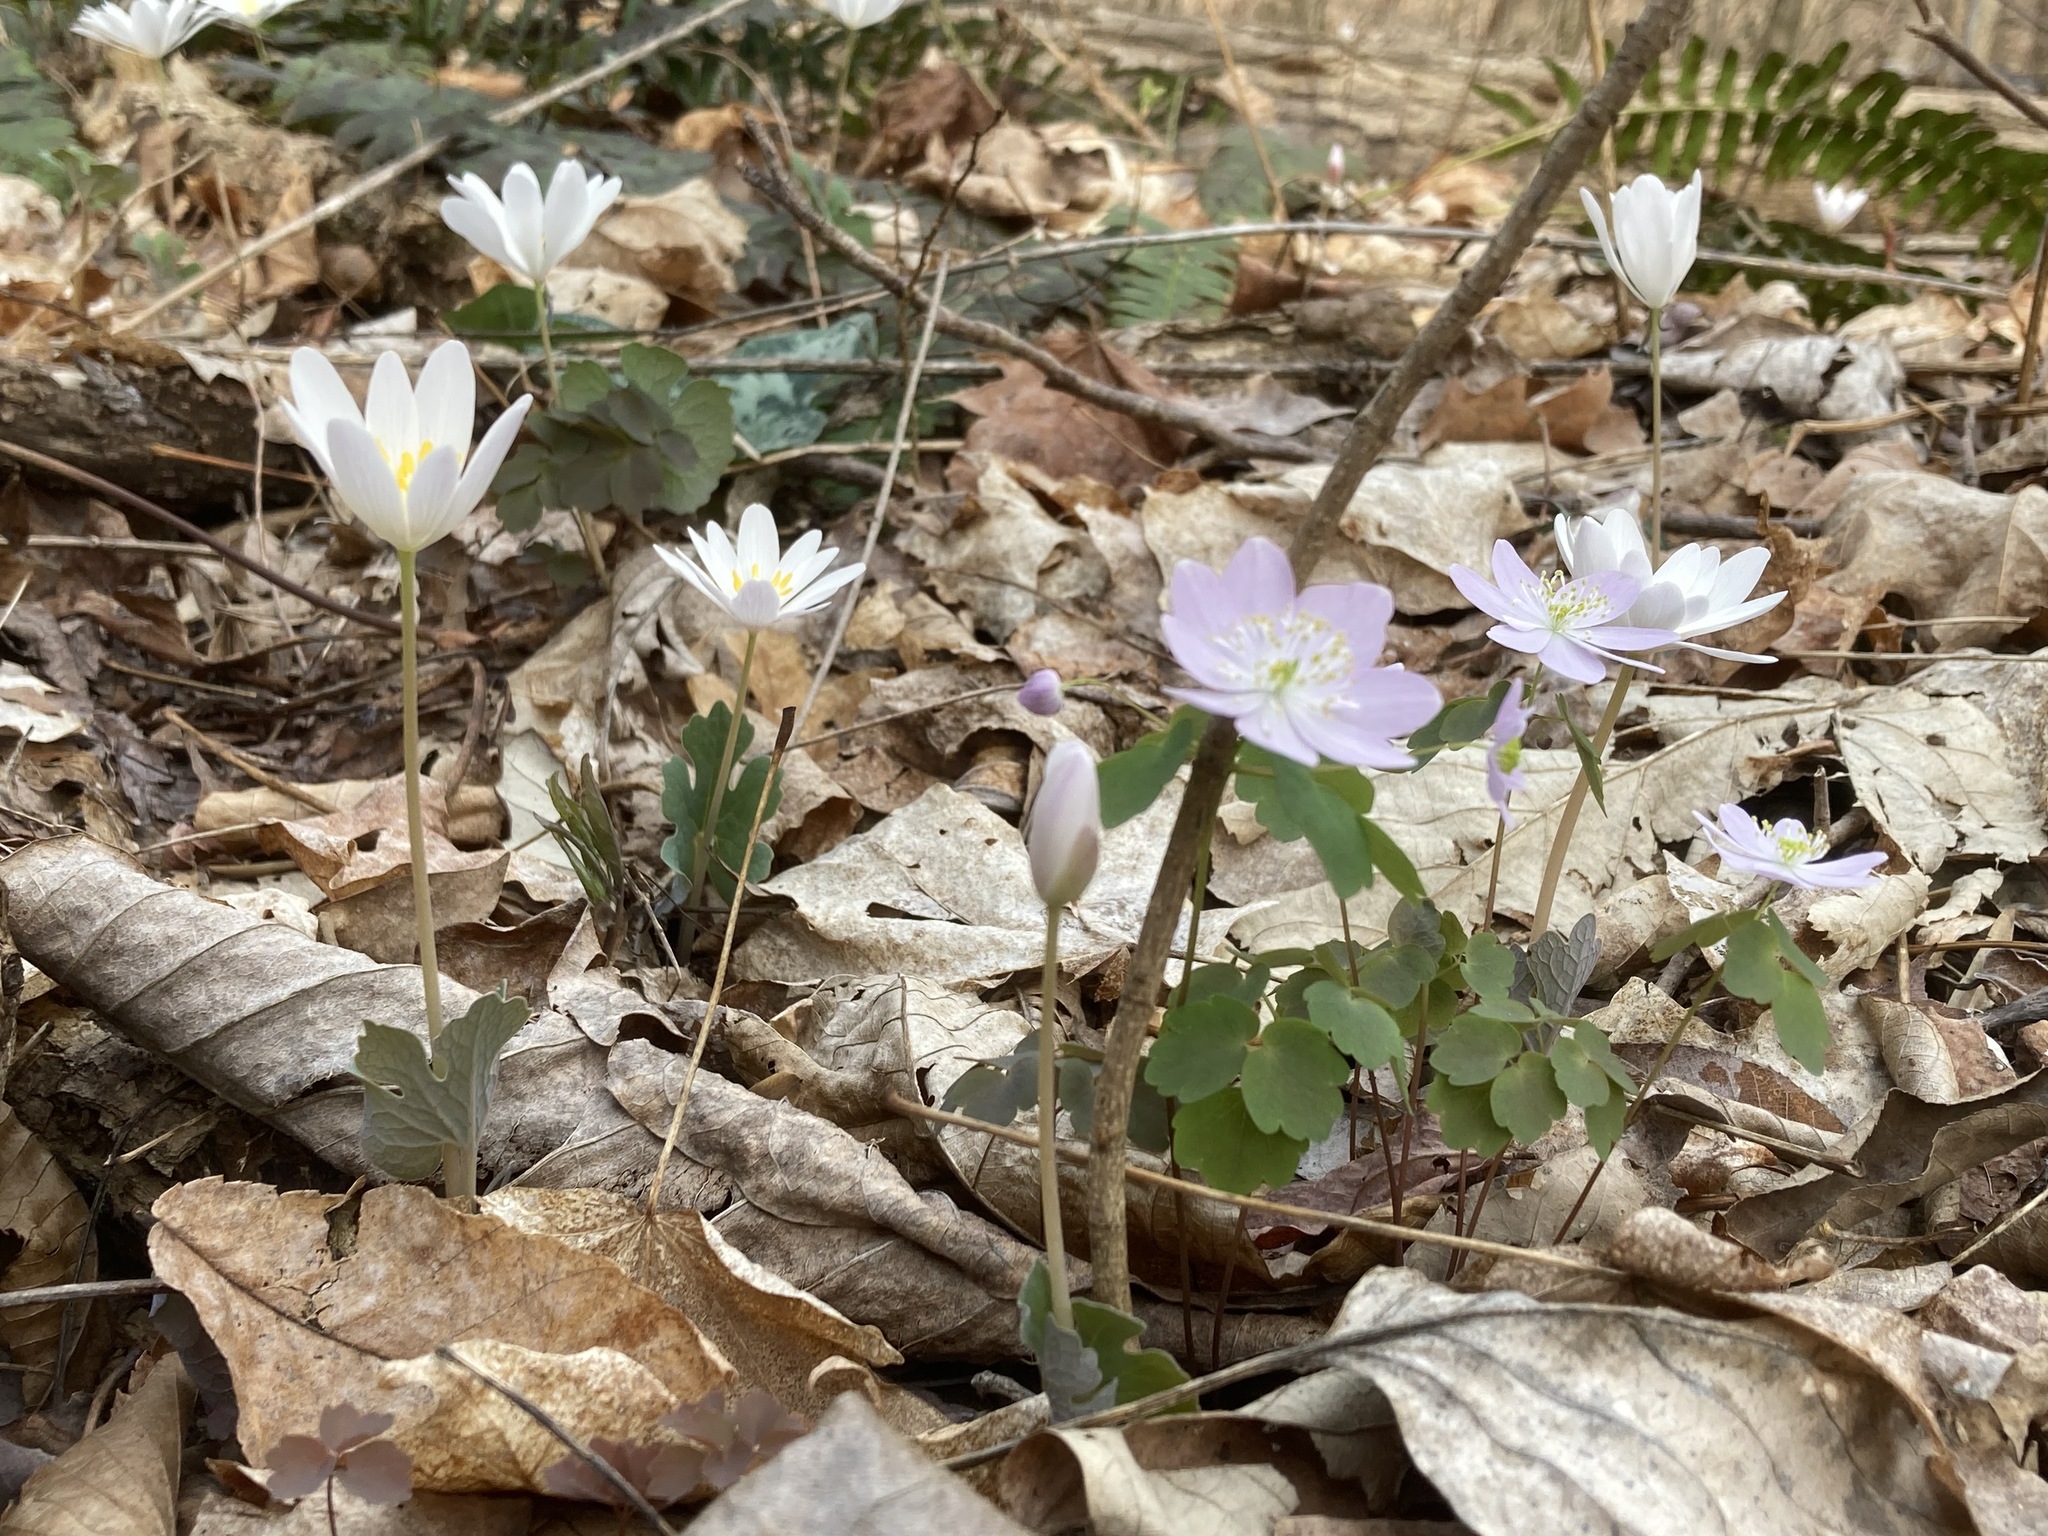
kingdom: Plantae
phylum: Tracheophyta
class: Magnoliopsida
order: Ranunculales
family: Ranunculaceae
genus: Thalictrum
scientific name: Thalictrum thalictroides
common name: Rue-anemone
